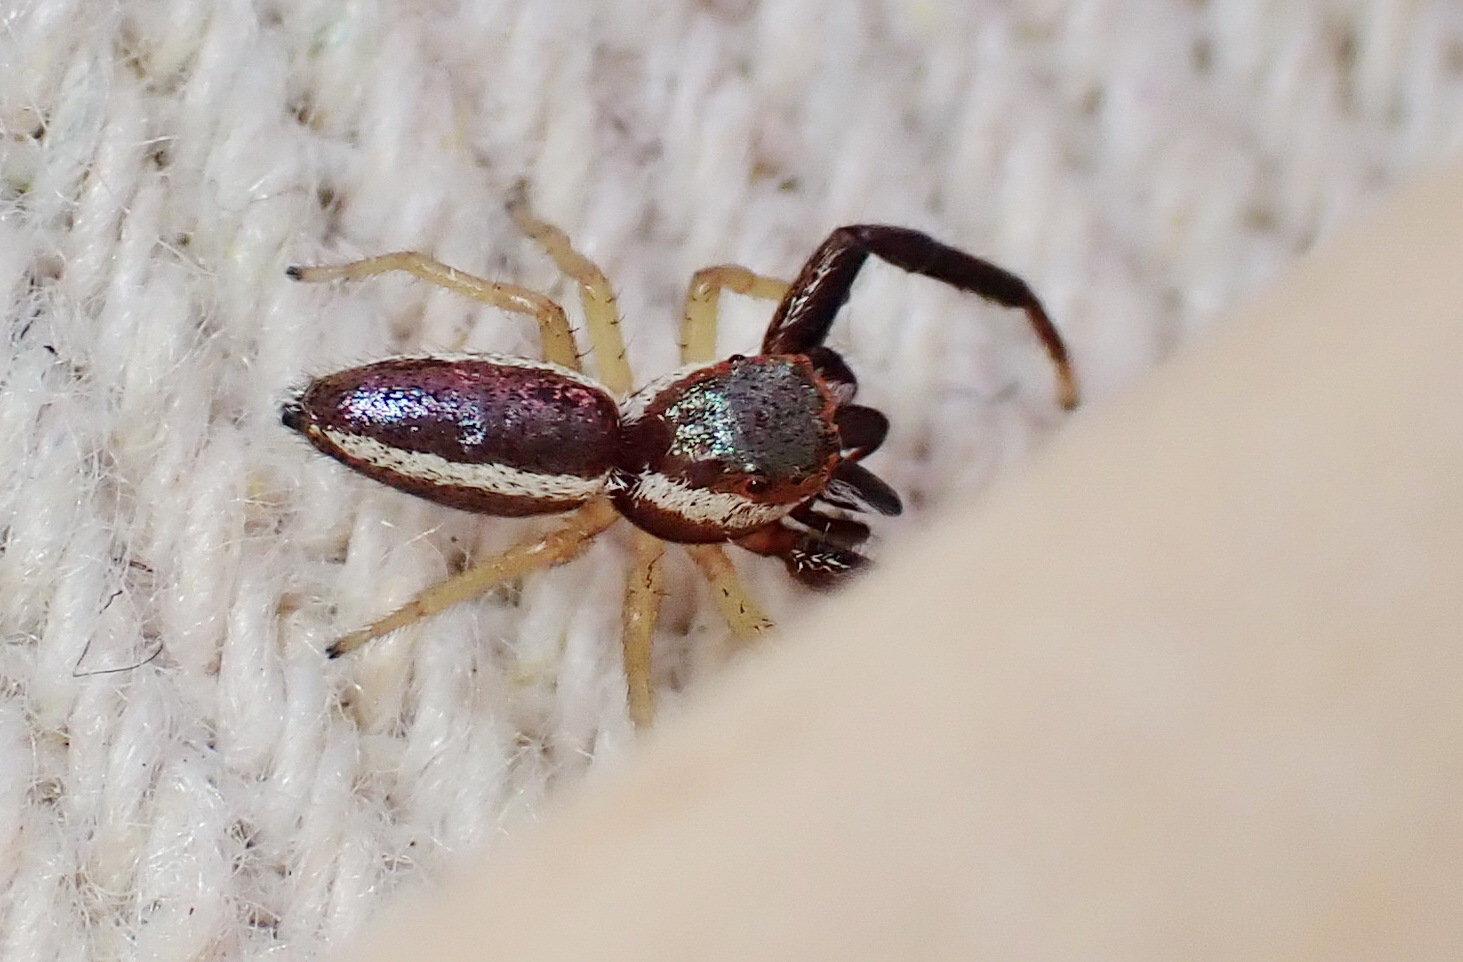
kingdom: Animalia
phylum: Arthropoda
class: Arachnida
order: Araneae
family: Salticidae
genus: Hentzia
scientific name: Hentzia palmarum
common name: Common hentz jumping spider
